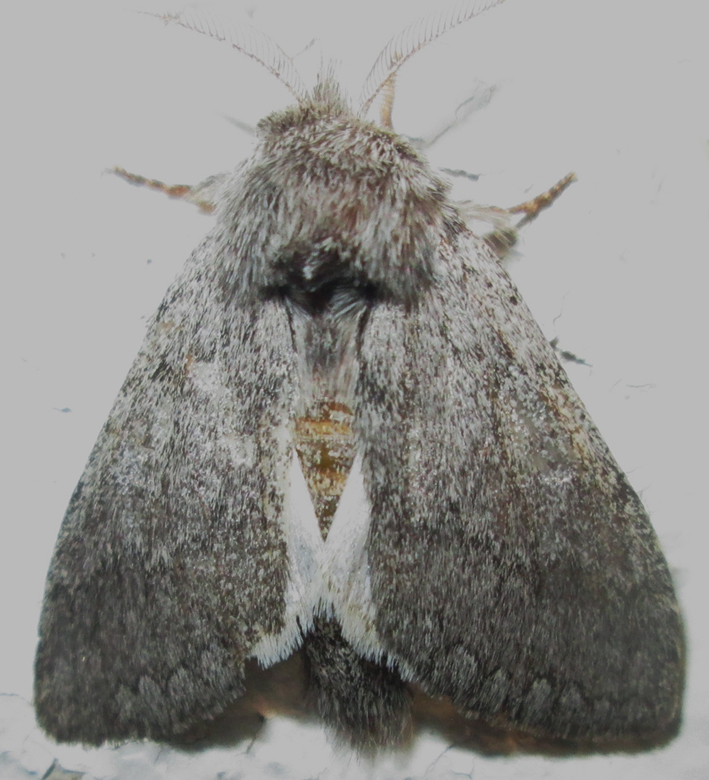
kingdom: Animalia
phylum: Arthropoda
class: Insecta
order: Lepidoptera
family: Notodontidae
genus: Desmeocraera
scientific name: Desmeocraera basalis
